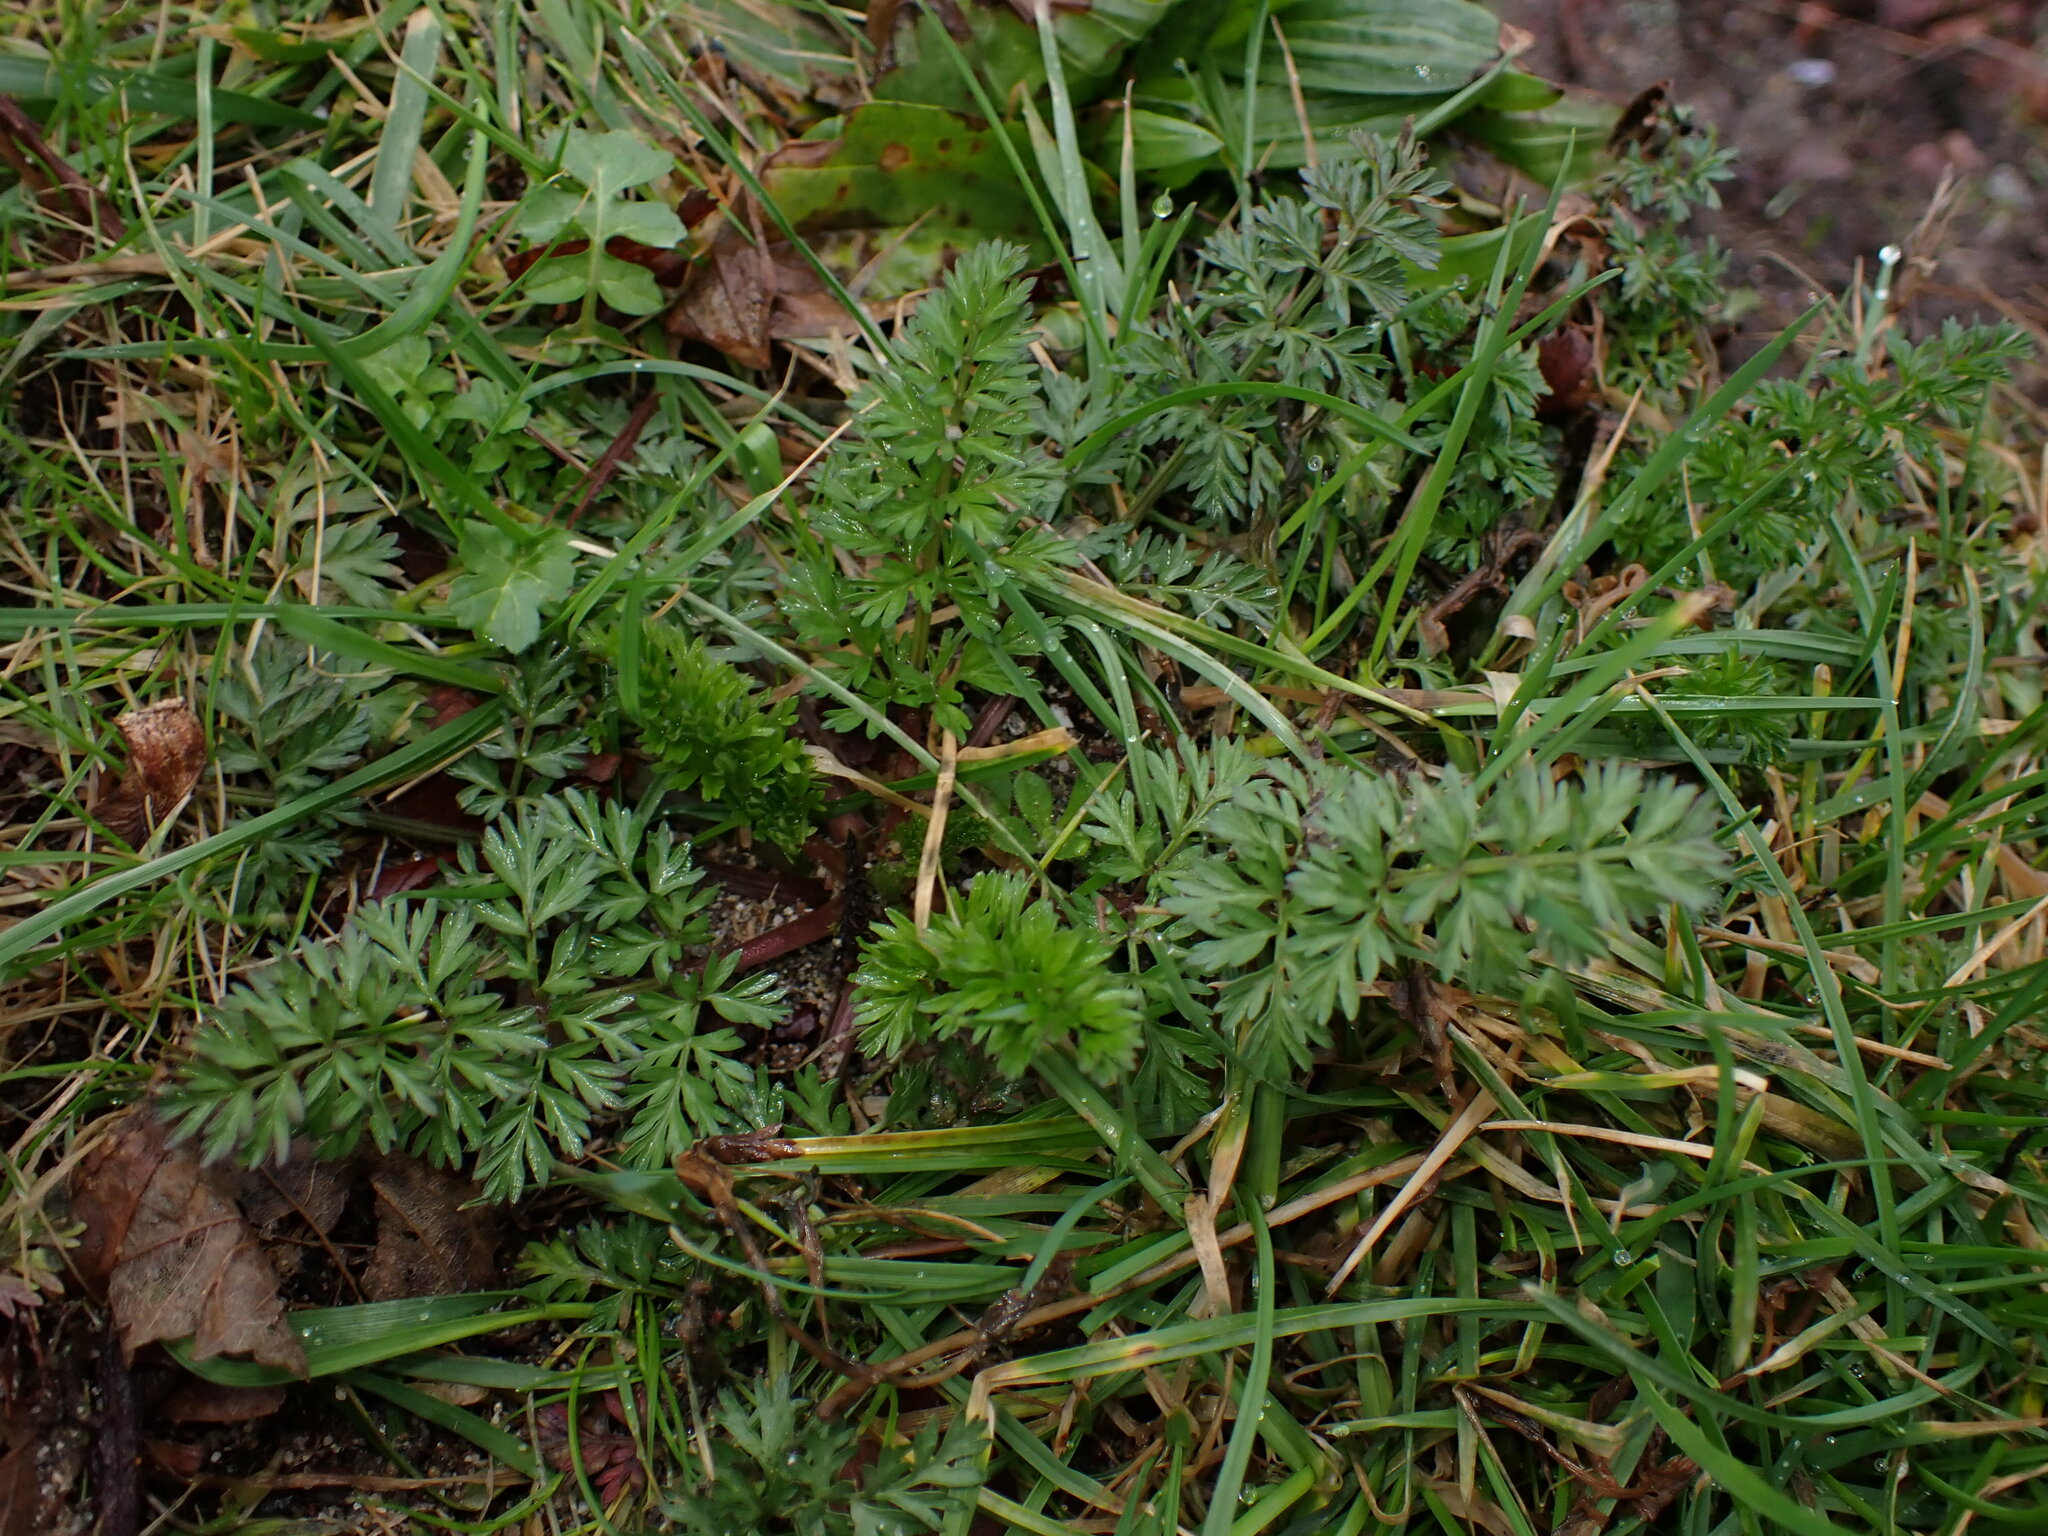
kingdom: Plantae
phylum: Tracheophyta
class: Magnoliopsida
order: Apiales
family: Apiaceae
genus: Daucus
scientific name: Daucus carota
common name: Wild carrot
